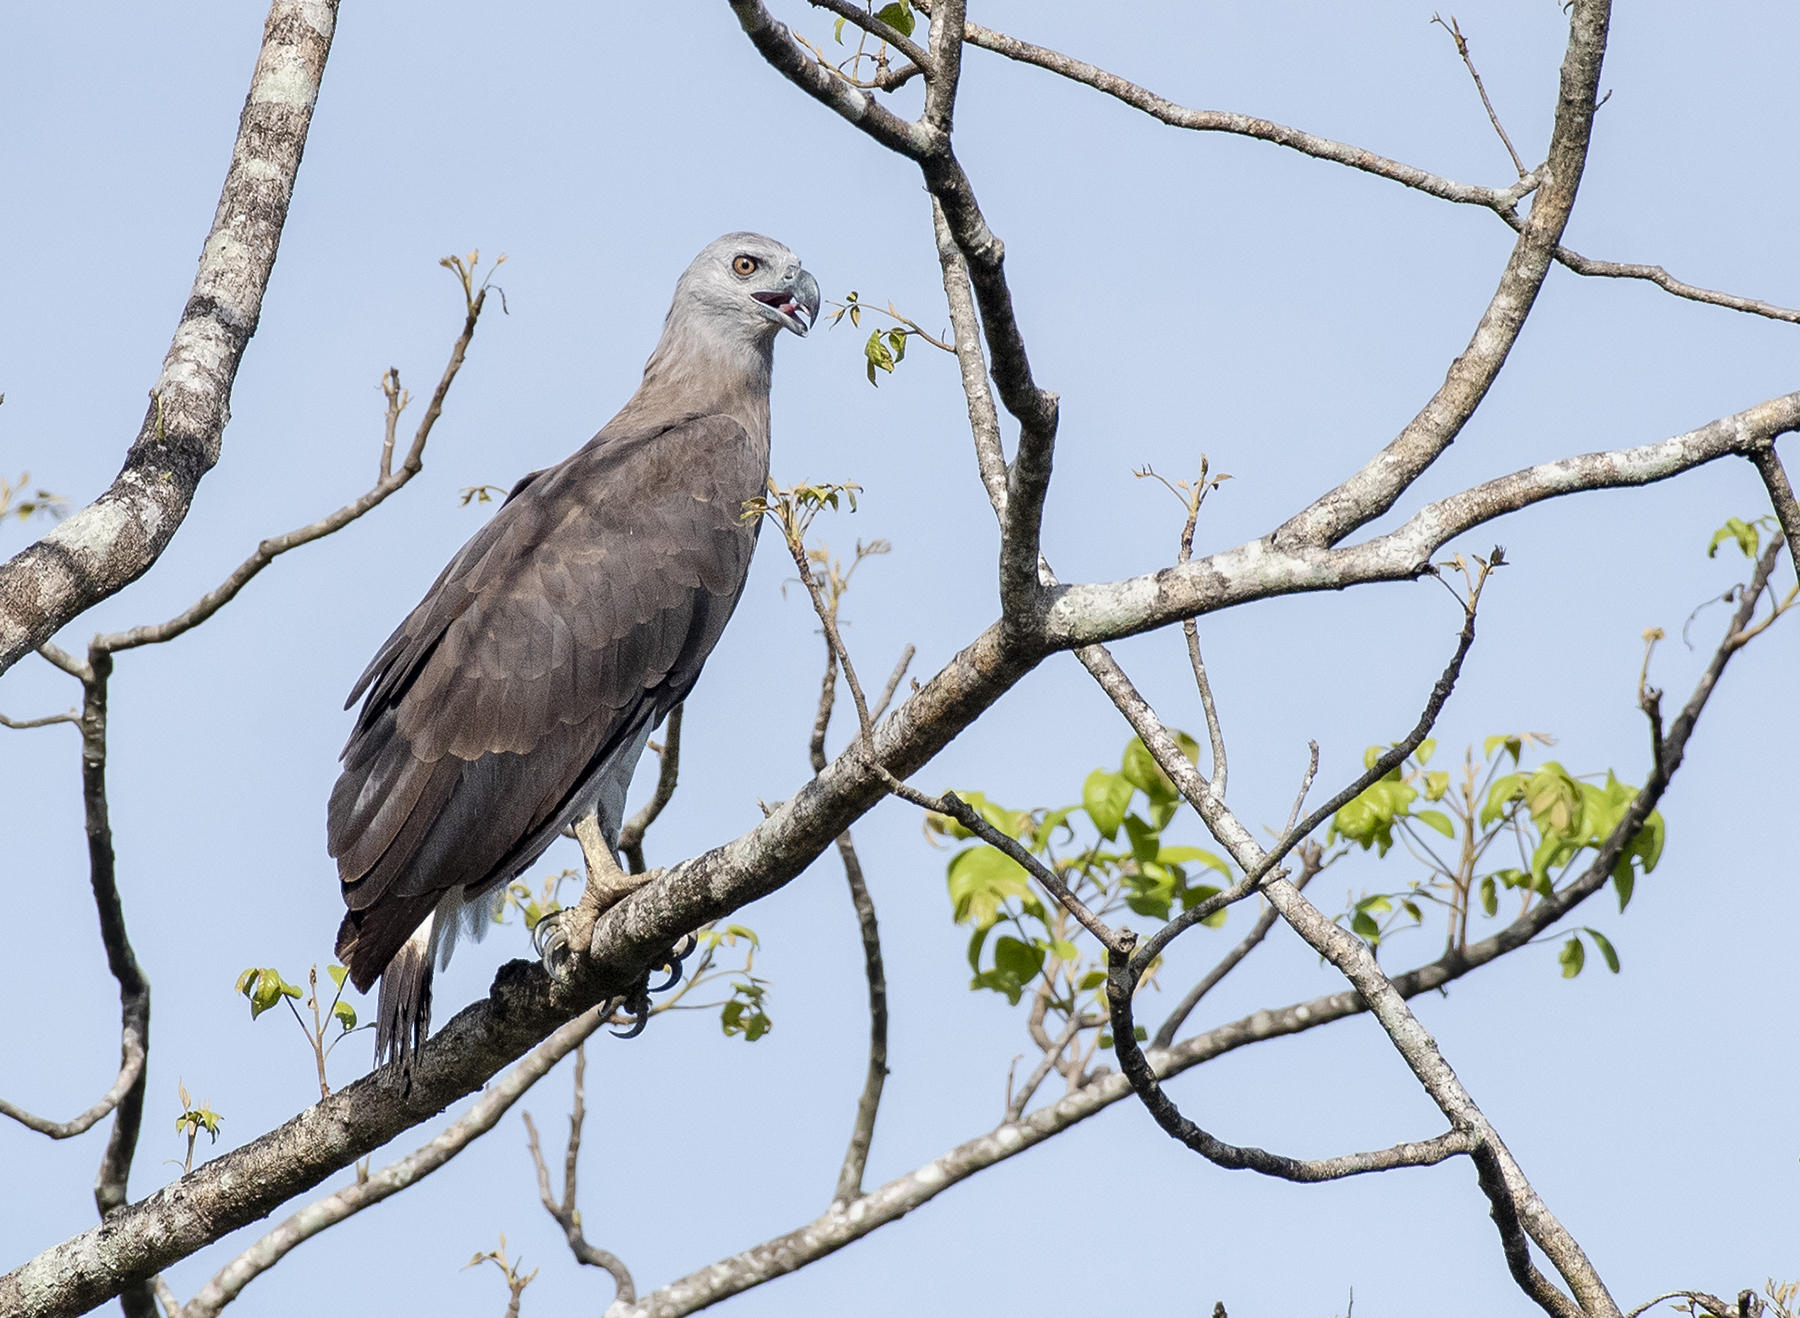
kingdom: Animalia
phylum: Chordata
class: Aves
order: Accipitriformes
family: Accipitridae
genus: Icthyophaga
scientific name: Icthyophaga ichthyaetus
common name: Grey-headed fish eagle
